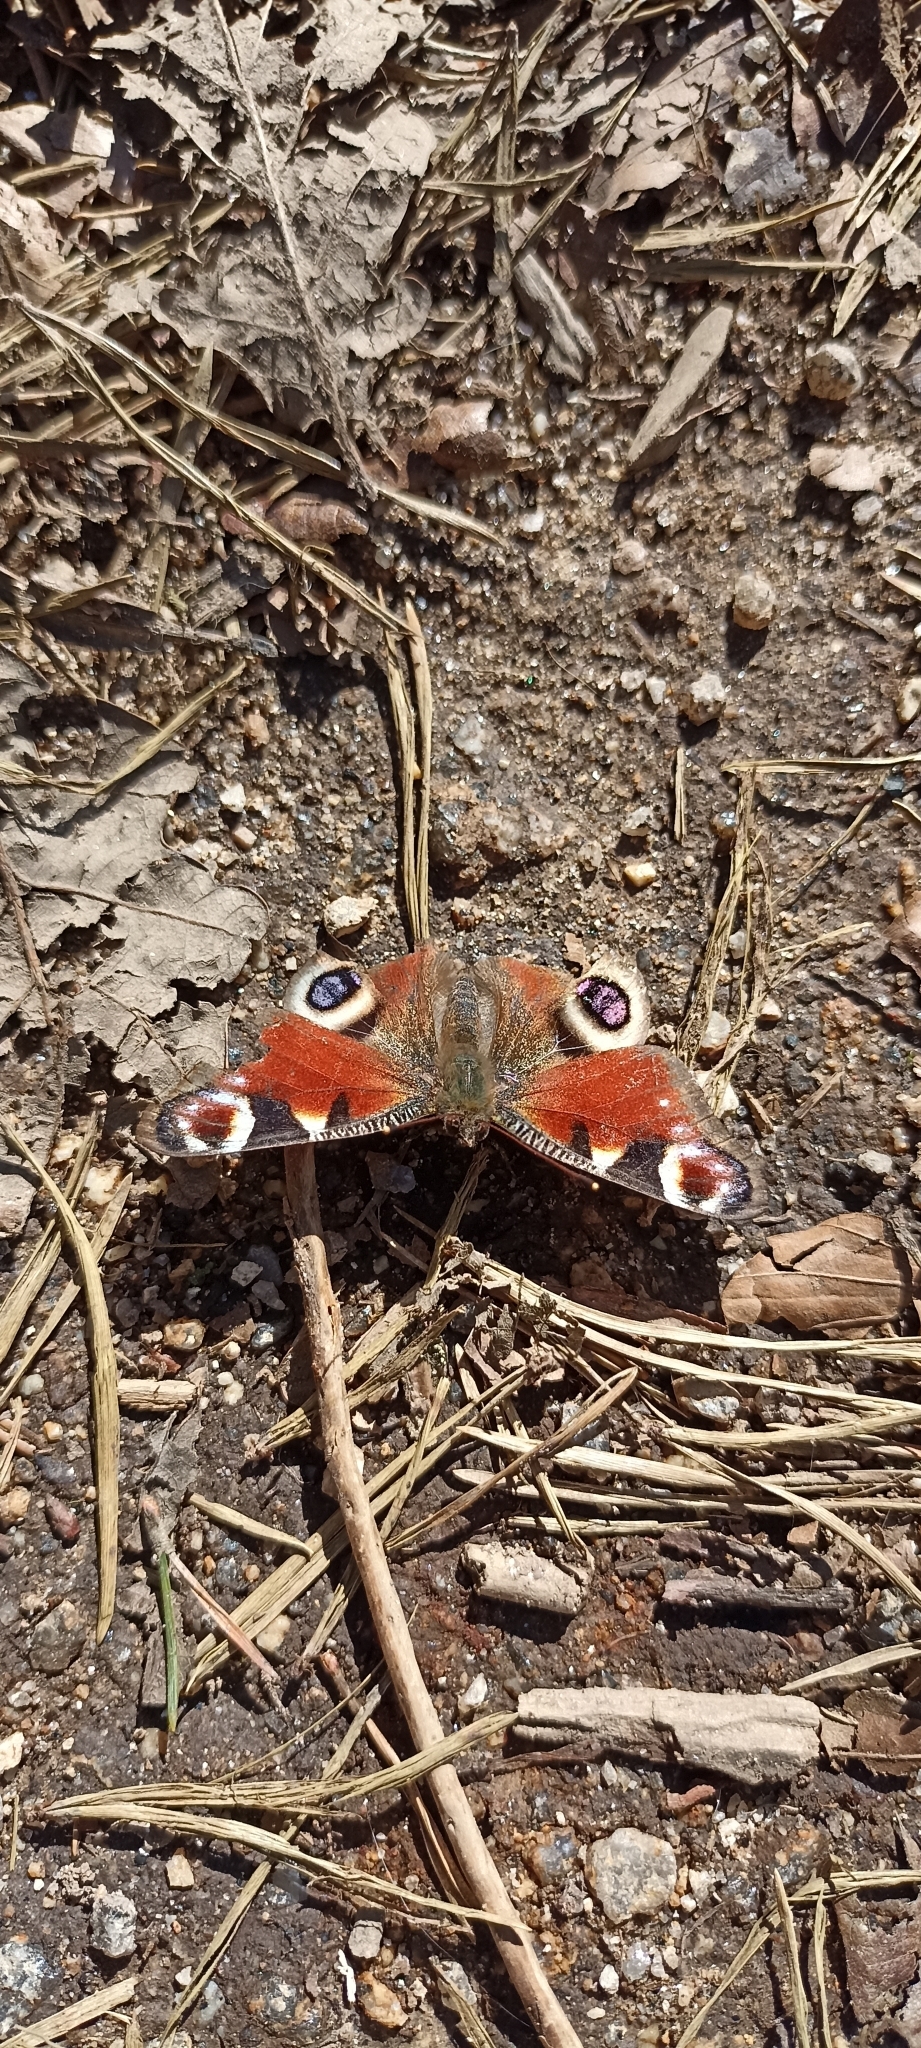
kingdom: Animalia
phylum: Arthropoda
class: Insecta
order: Lepidoptera
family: Nymphalidae
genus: Aglais
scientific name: Aglais io
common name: Peacock
